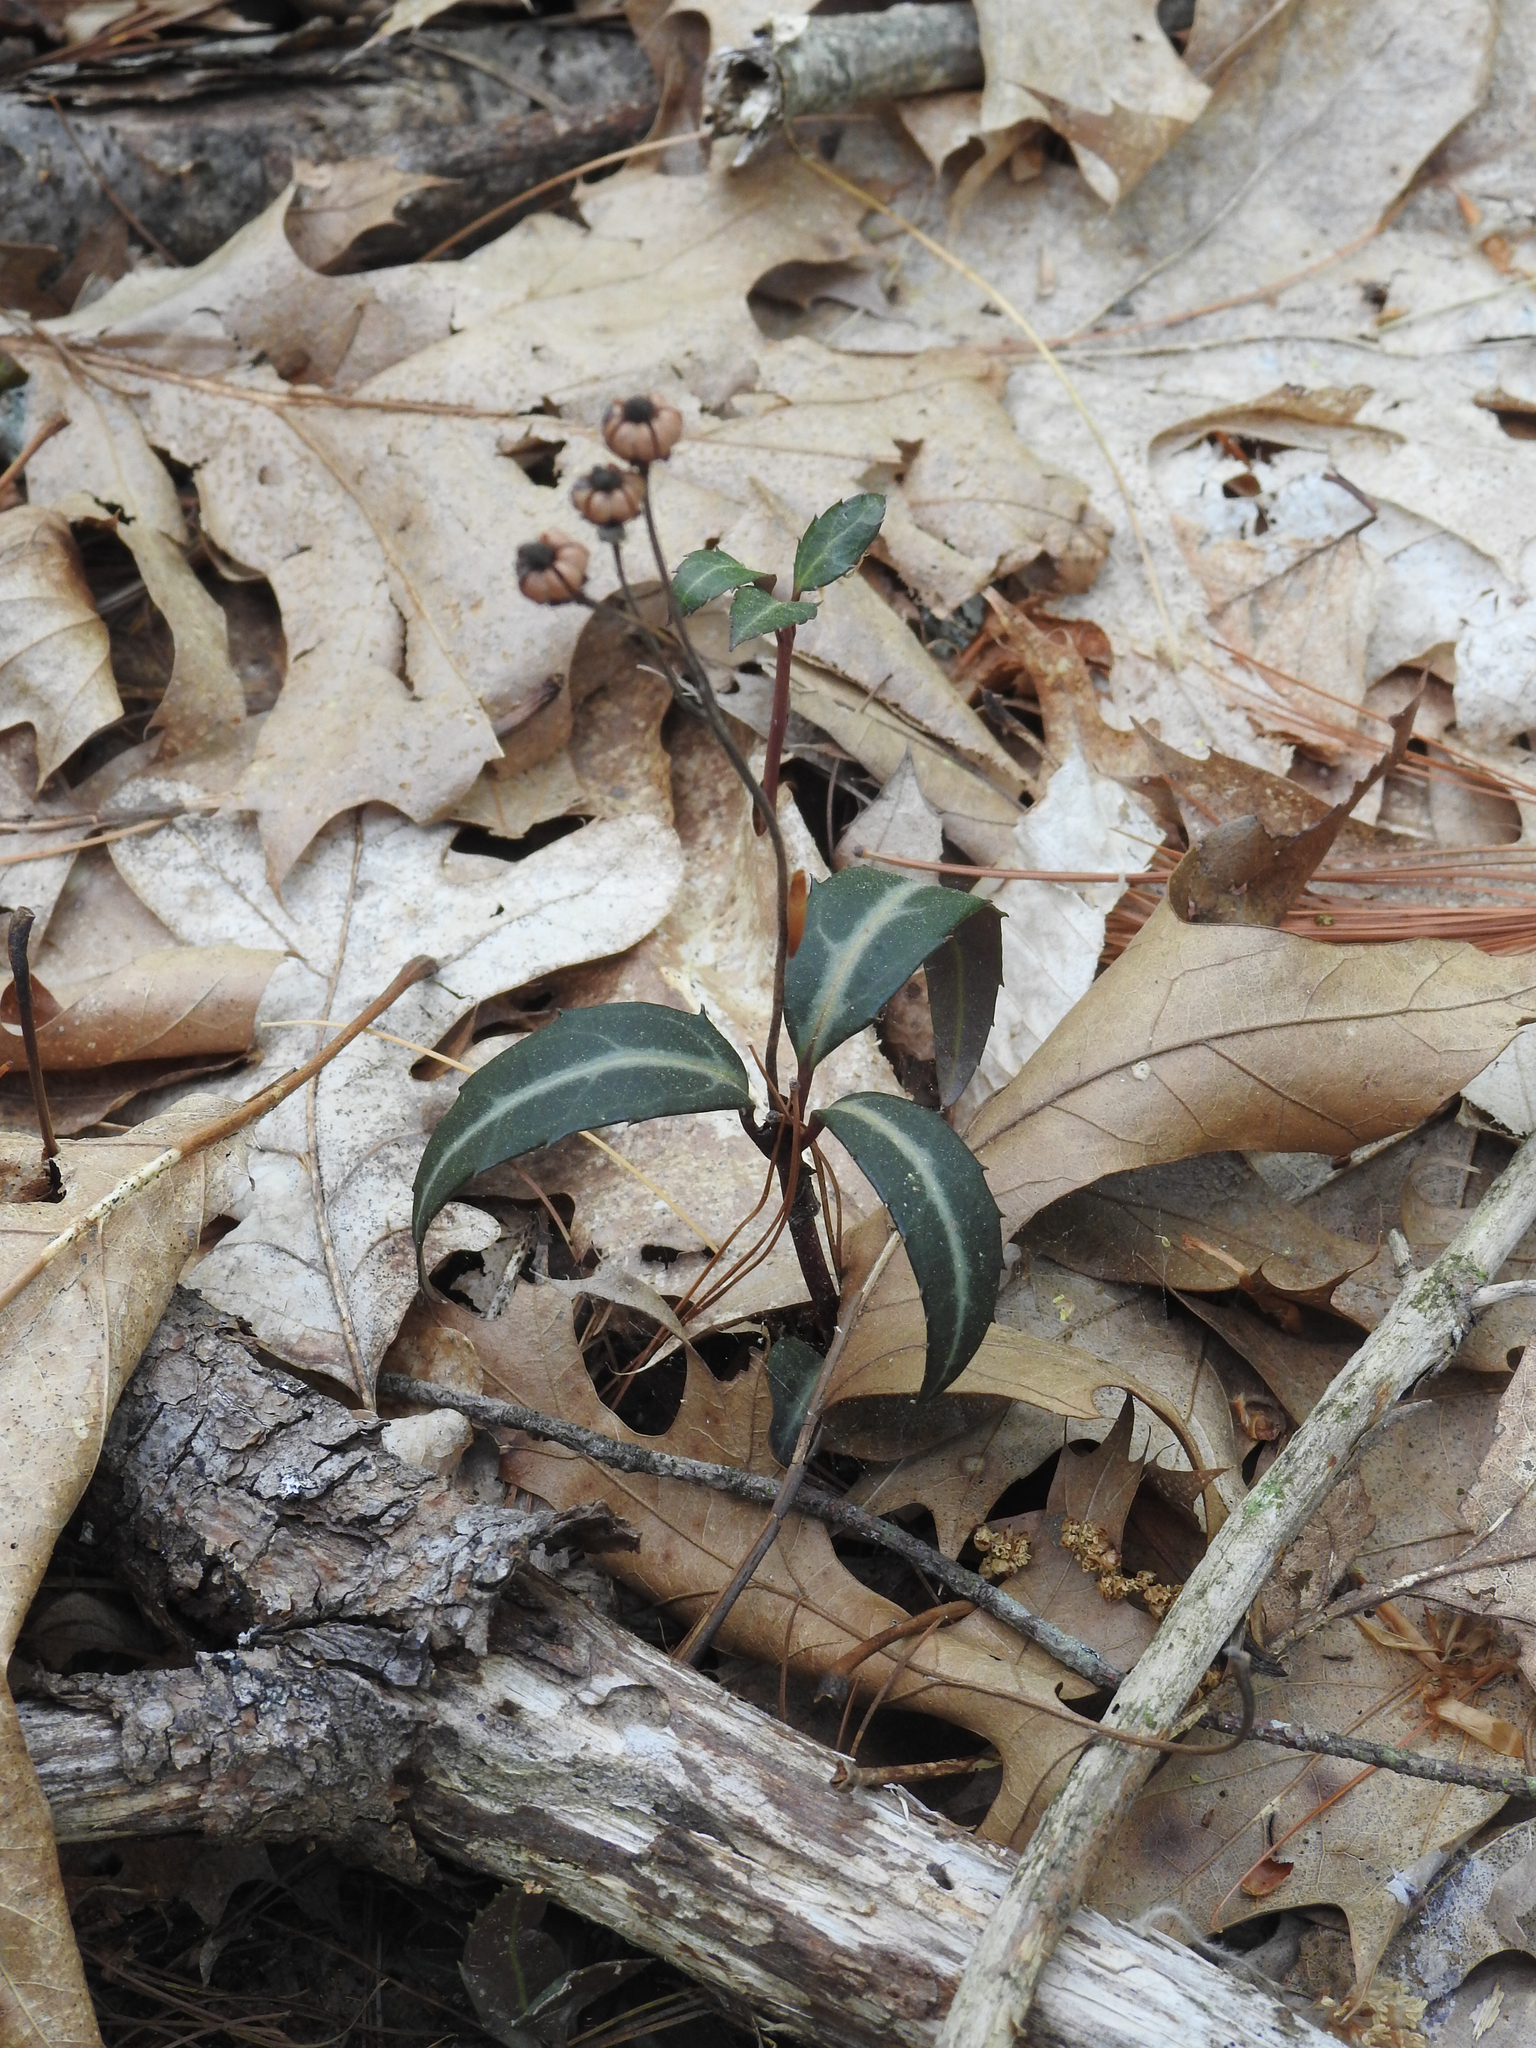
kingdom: Plantae
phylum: Tracheophyta
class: Magnoliopsida
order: Ericales
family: Ericaceae
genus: Chimaphila
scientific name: Chimaphila maculata
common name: Spotted pipsissewa
